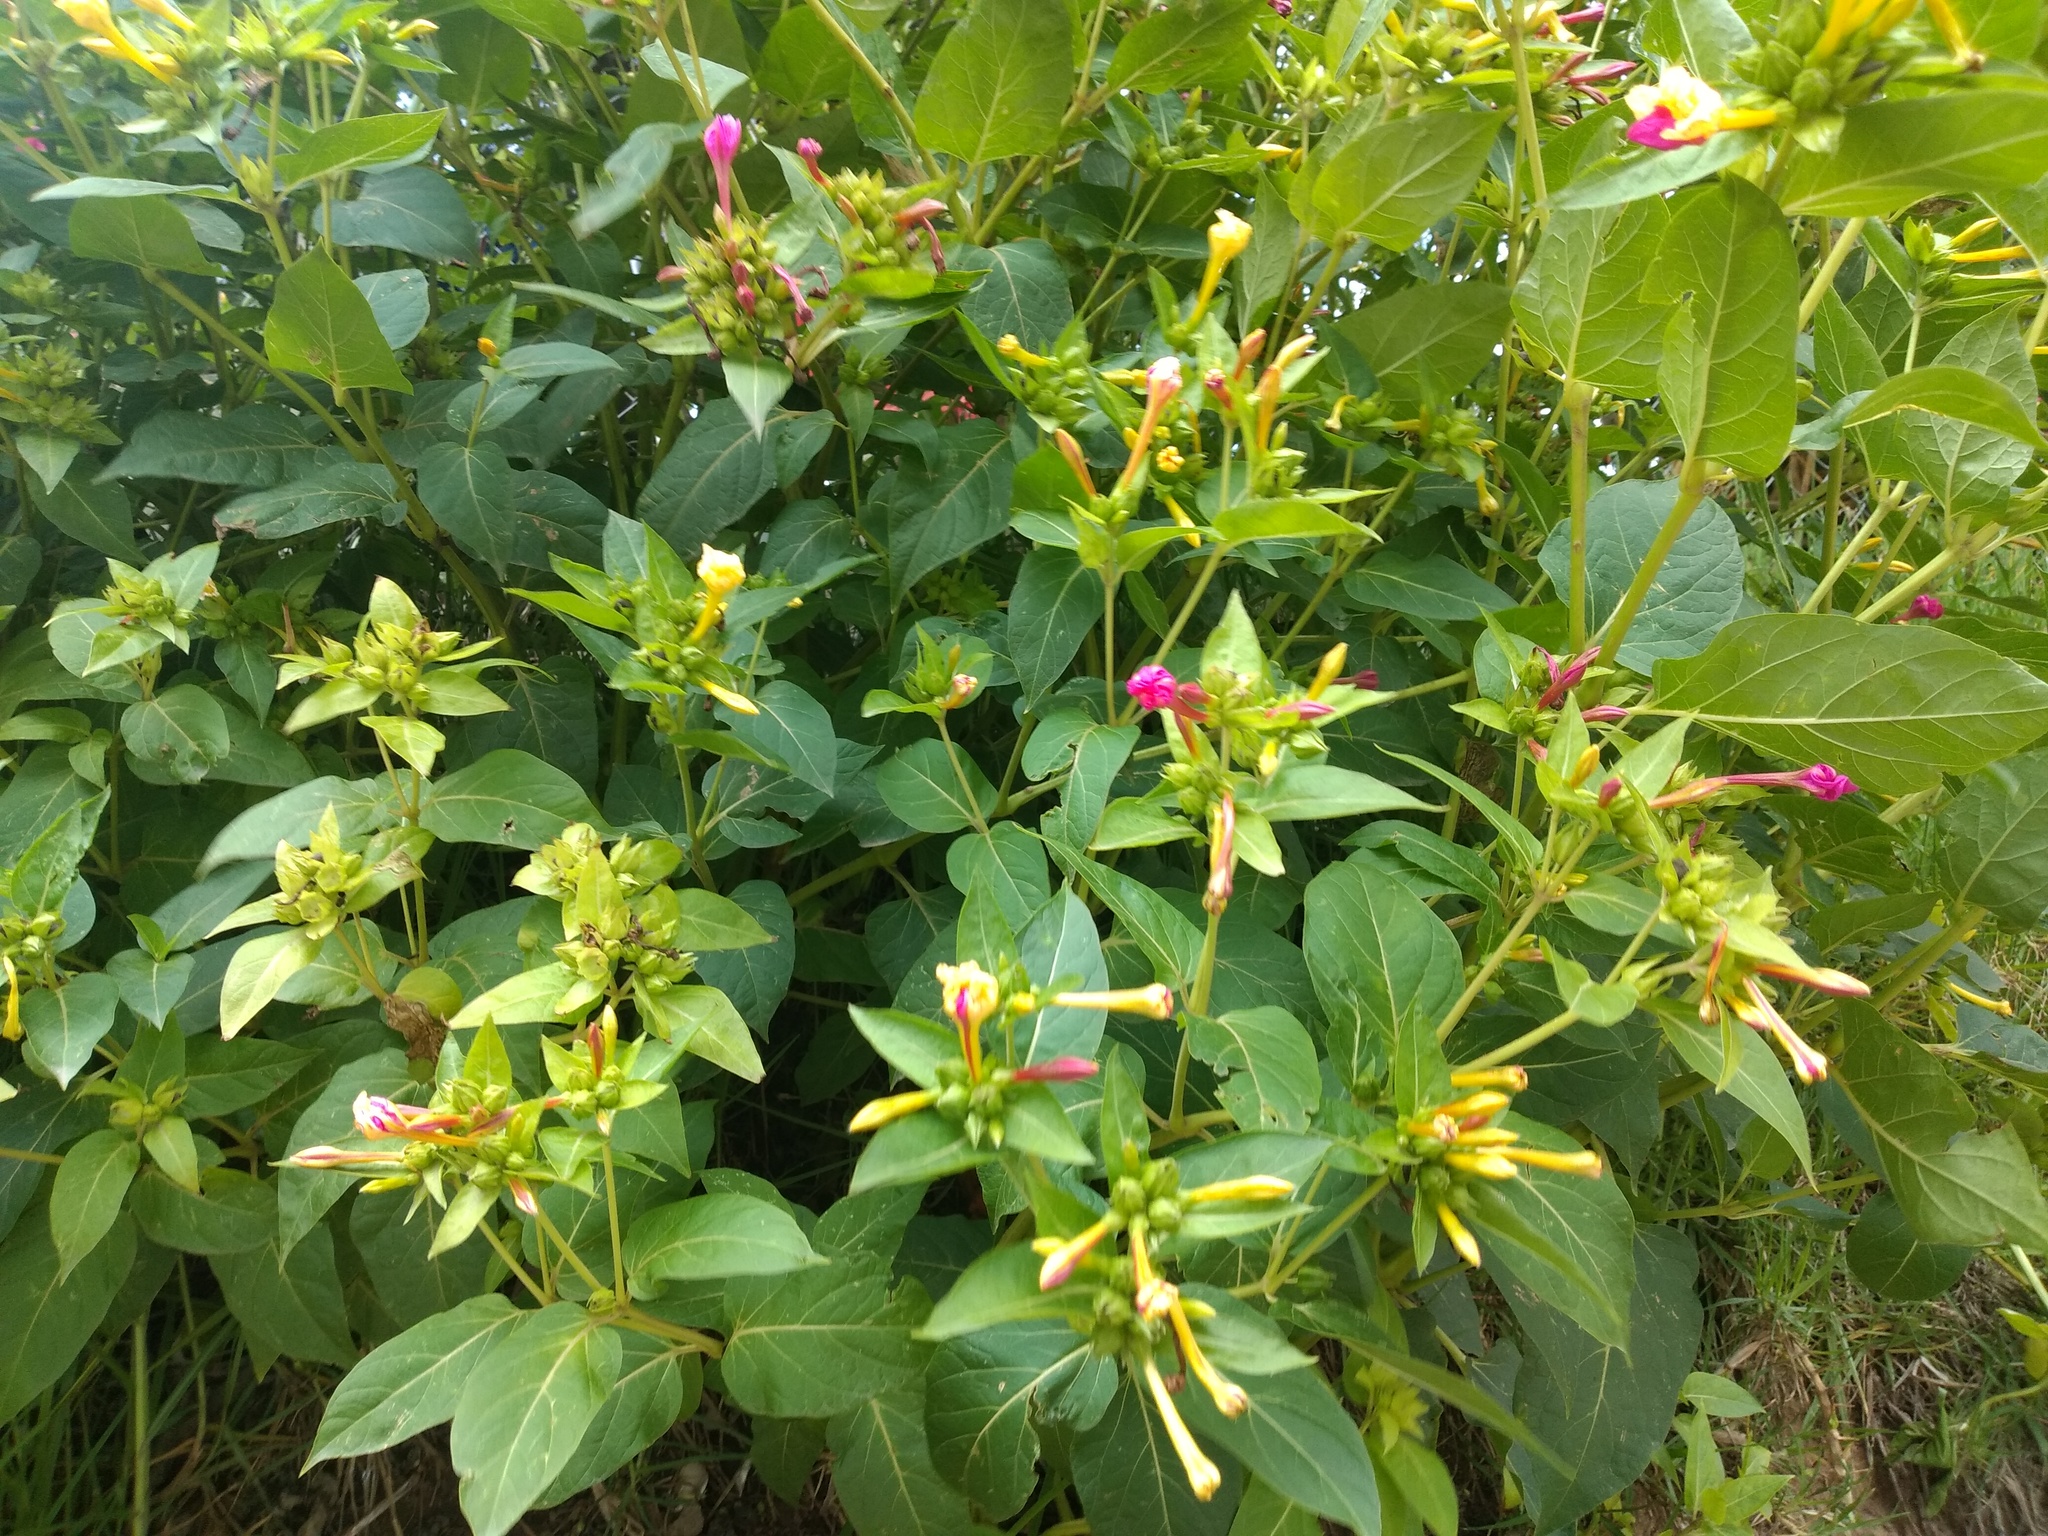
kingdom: Plantae
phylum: Tracheophyta
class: Magnoliopsida
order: Caryophyllales
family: Nyctaginaceae
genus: Mirabilis
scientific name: Mirabilis jalapa
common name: Marvel-of-peru
